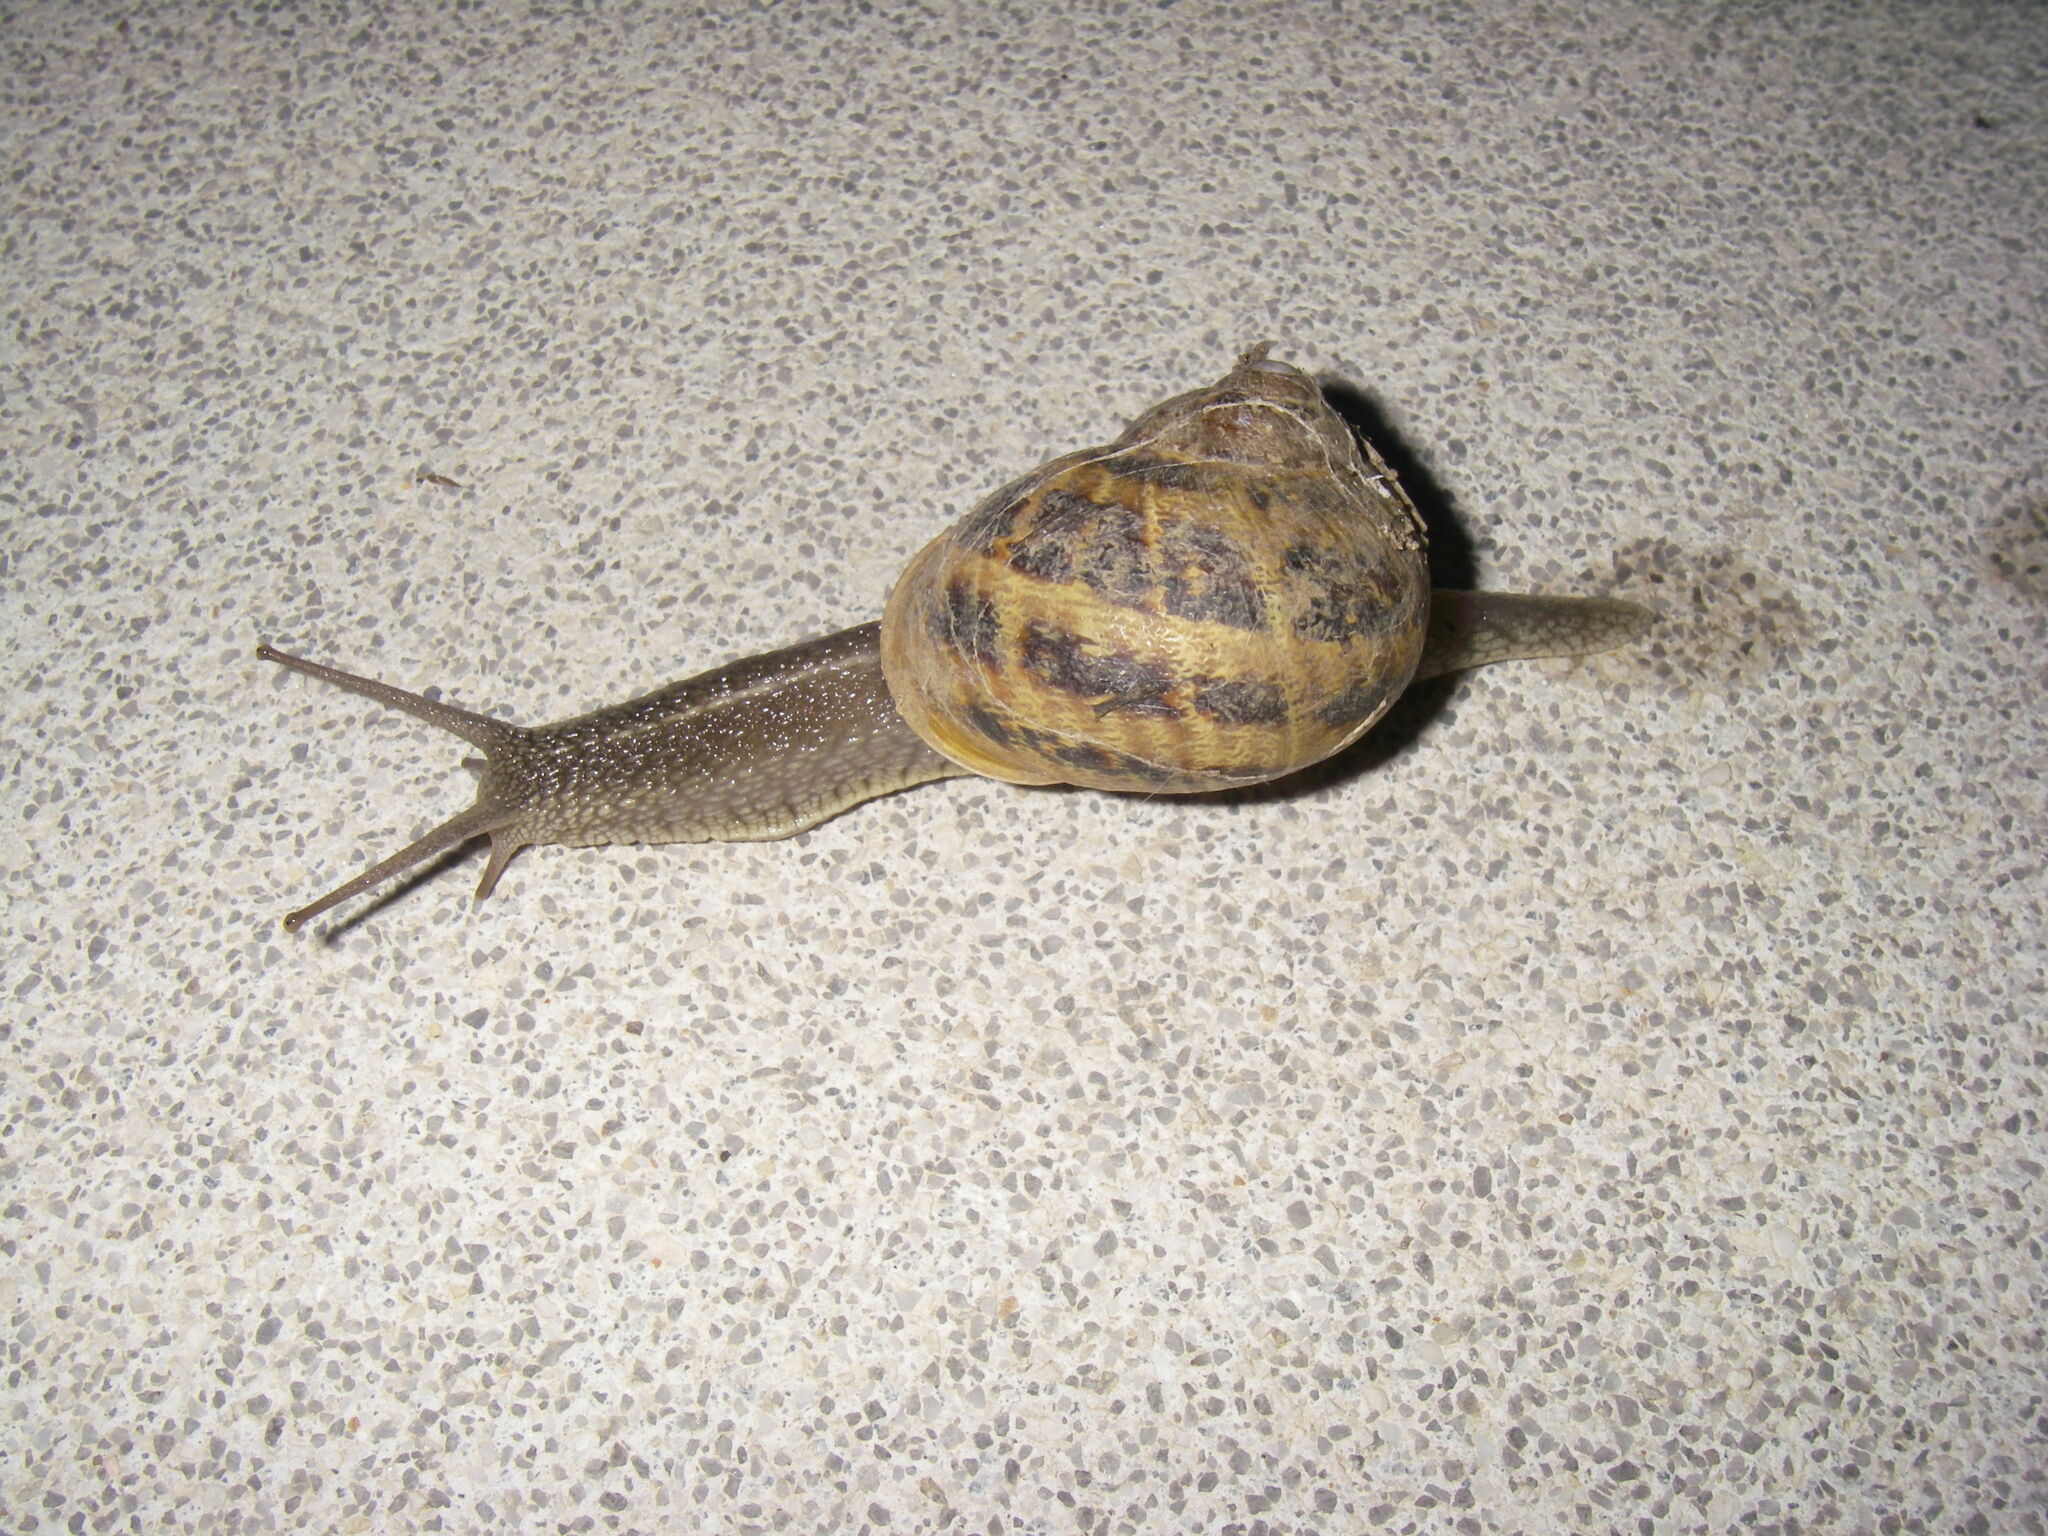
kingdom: Animalia
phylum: Mollusca
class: Gastropoda
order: Stylommatophora
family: Helicidae
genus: Cornu
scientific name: Cornu aspersum
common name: Brown garden snail
